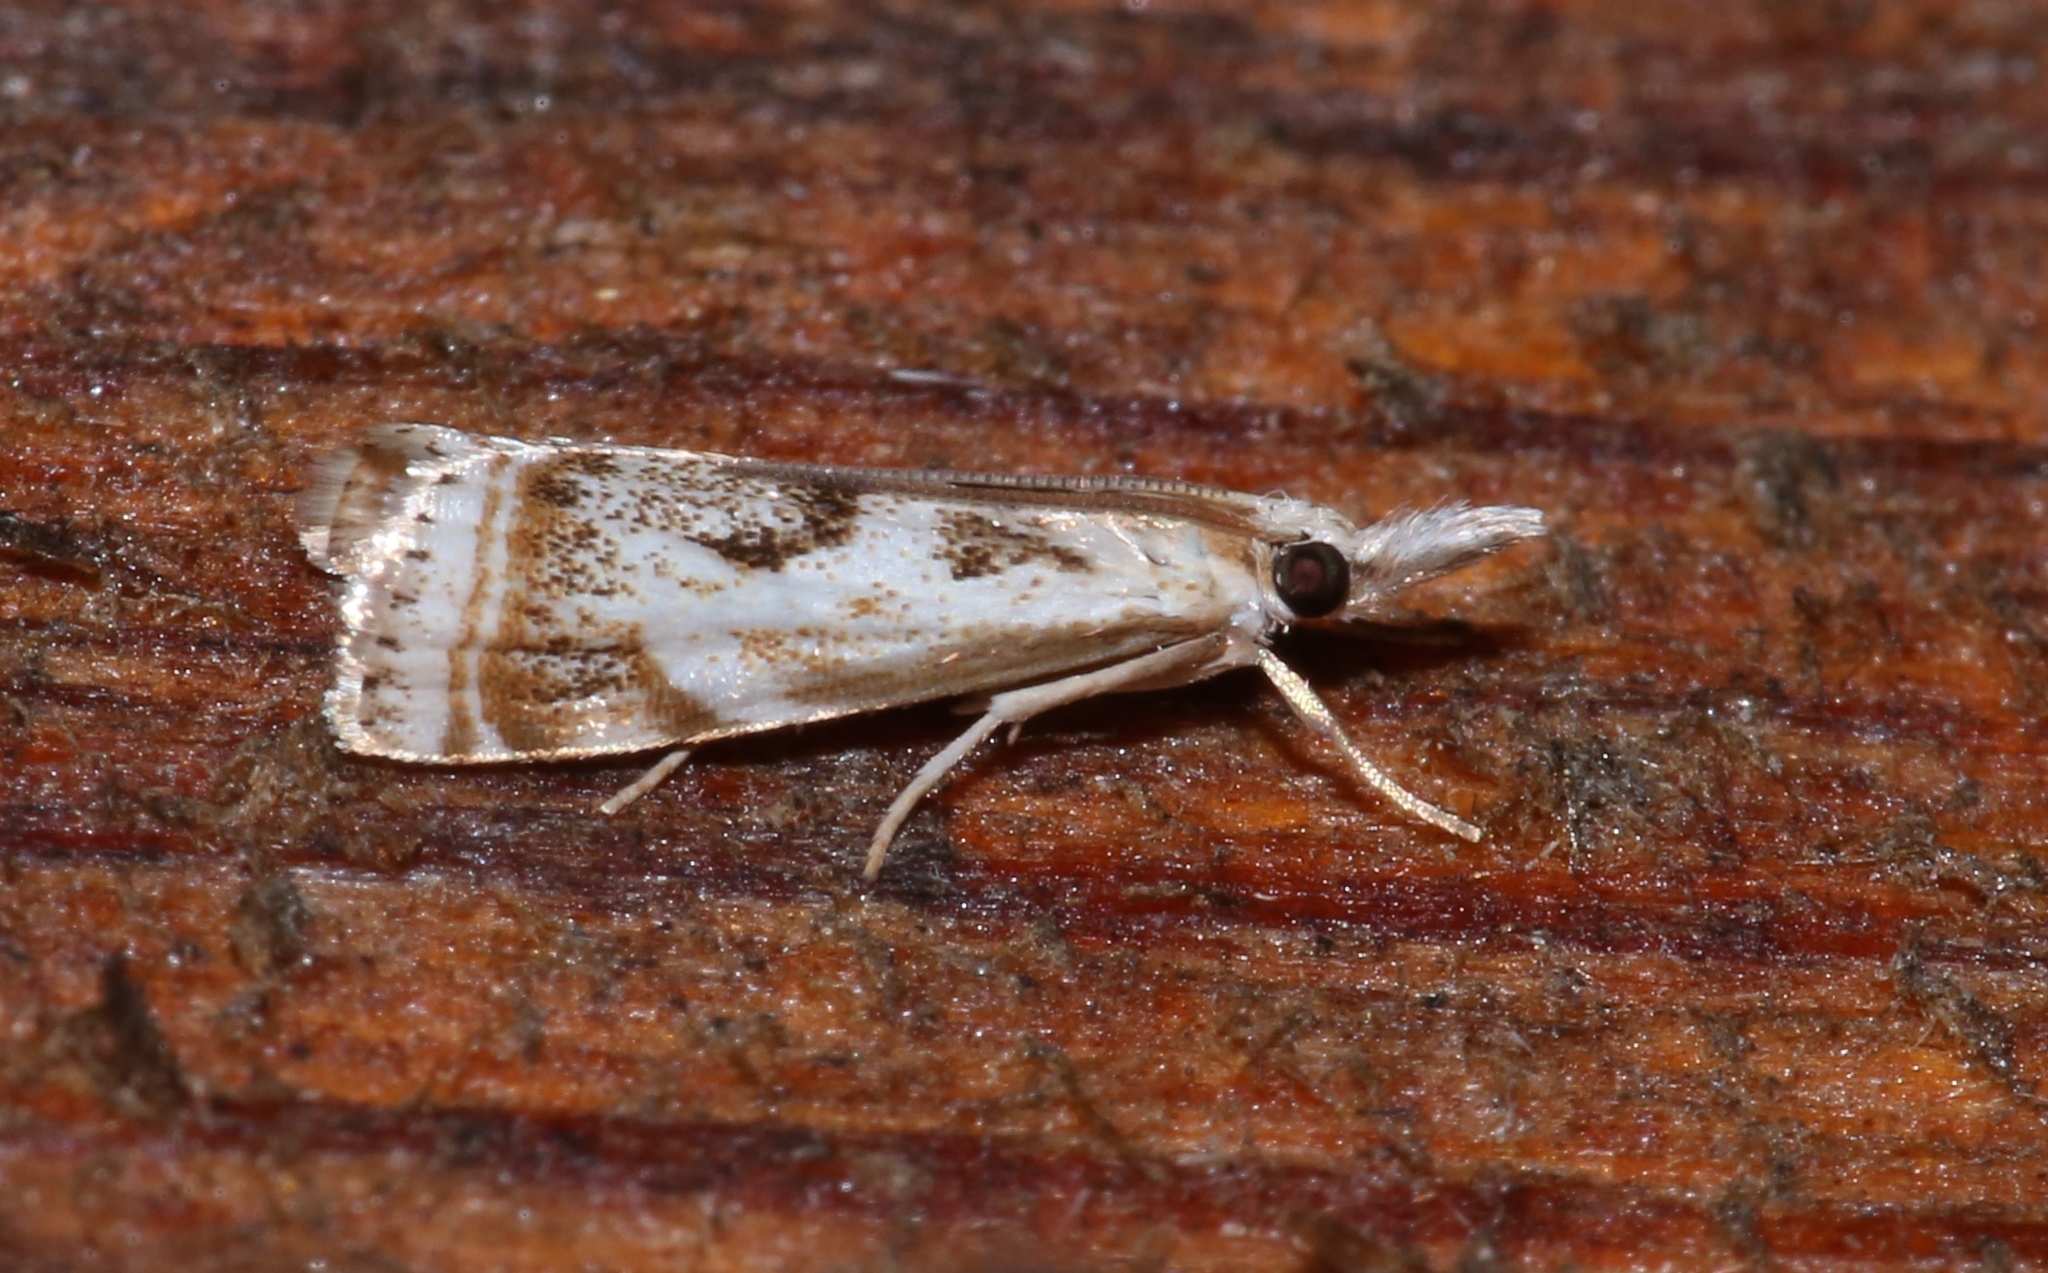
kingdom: Animalia
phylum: Arthropoda
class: Insecta
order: Lepidoptera
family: Crambidae
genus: Microcrambus
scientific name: Microcrambus elegans
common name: Elegant grass-veneer
